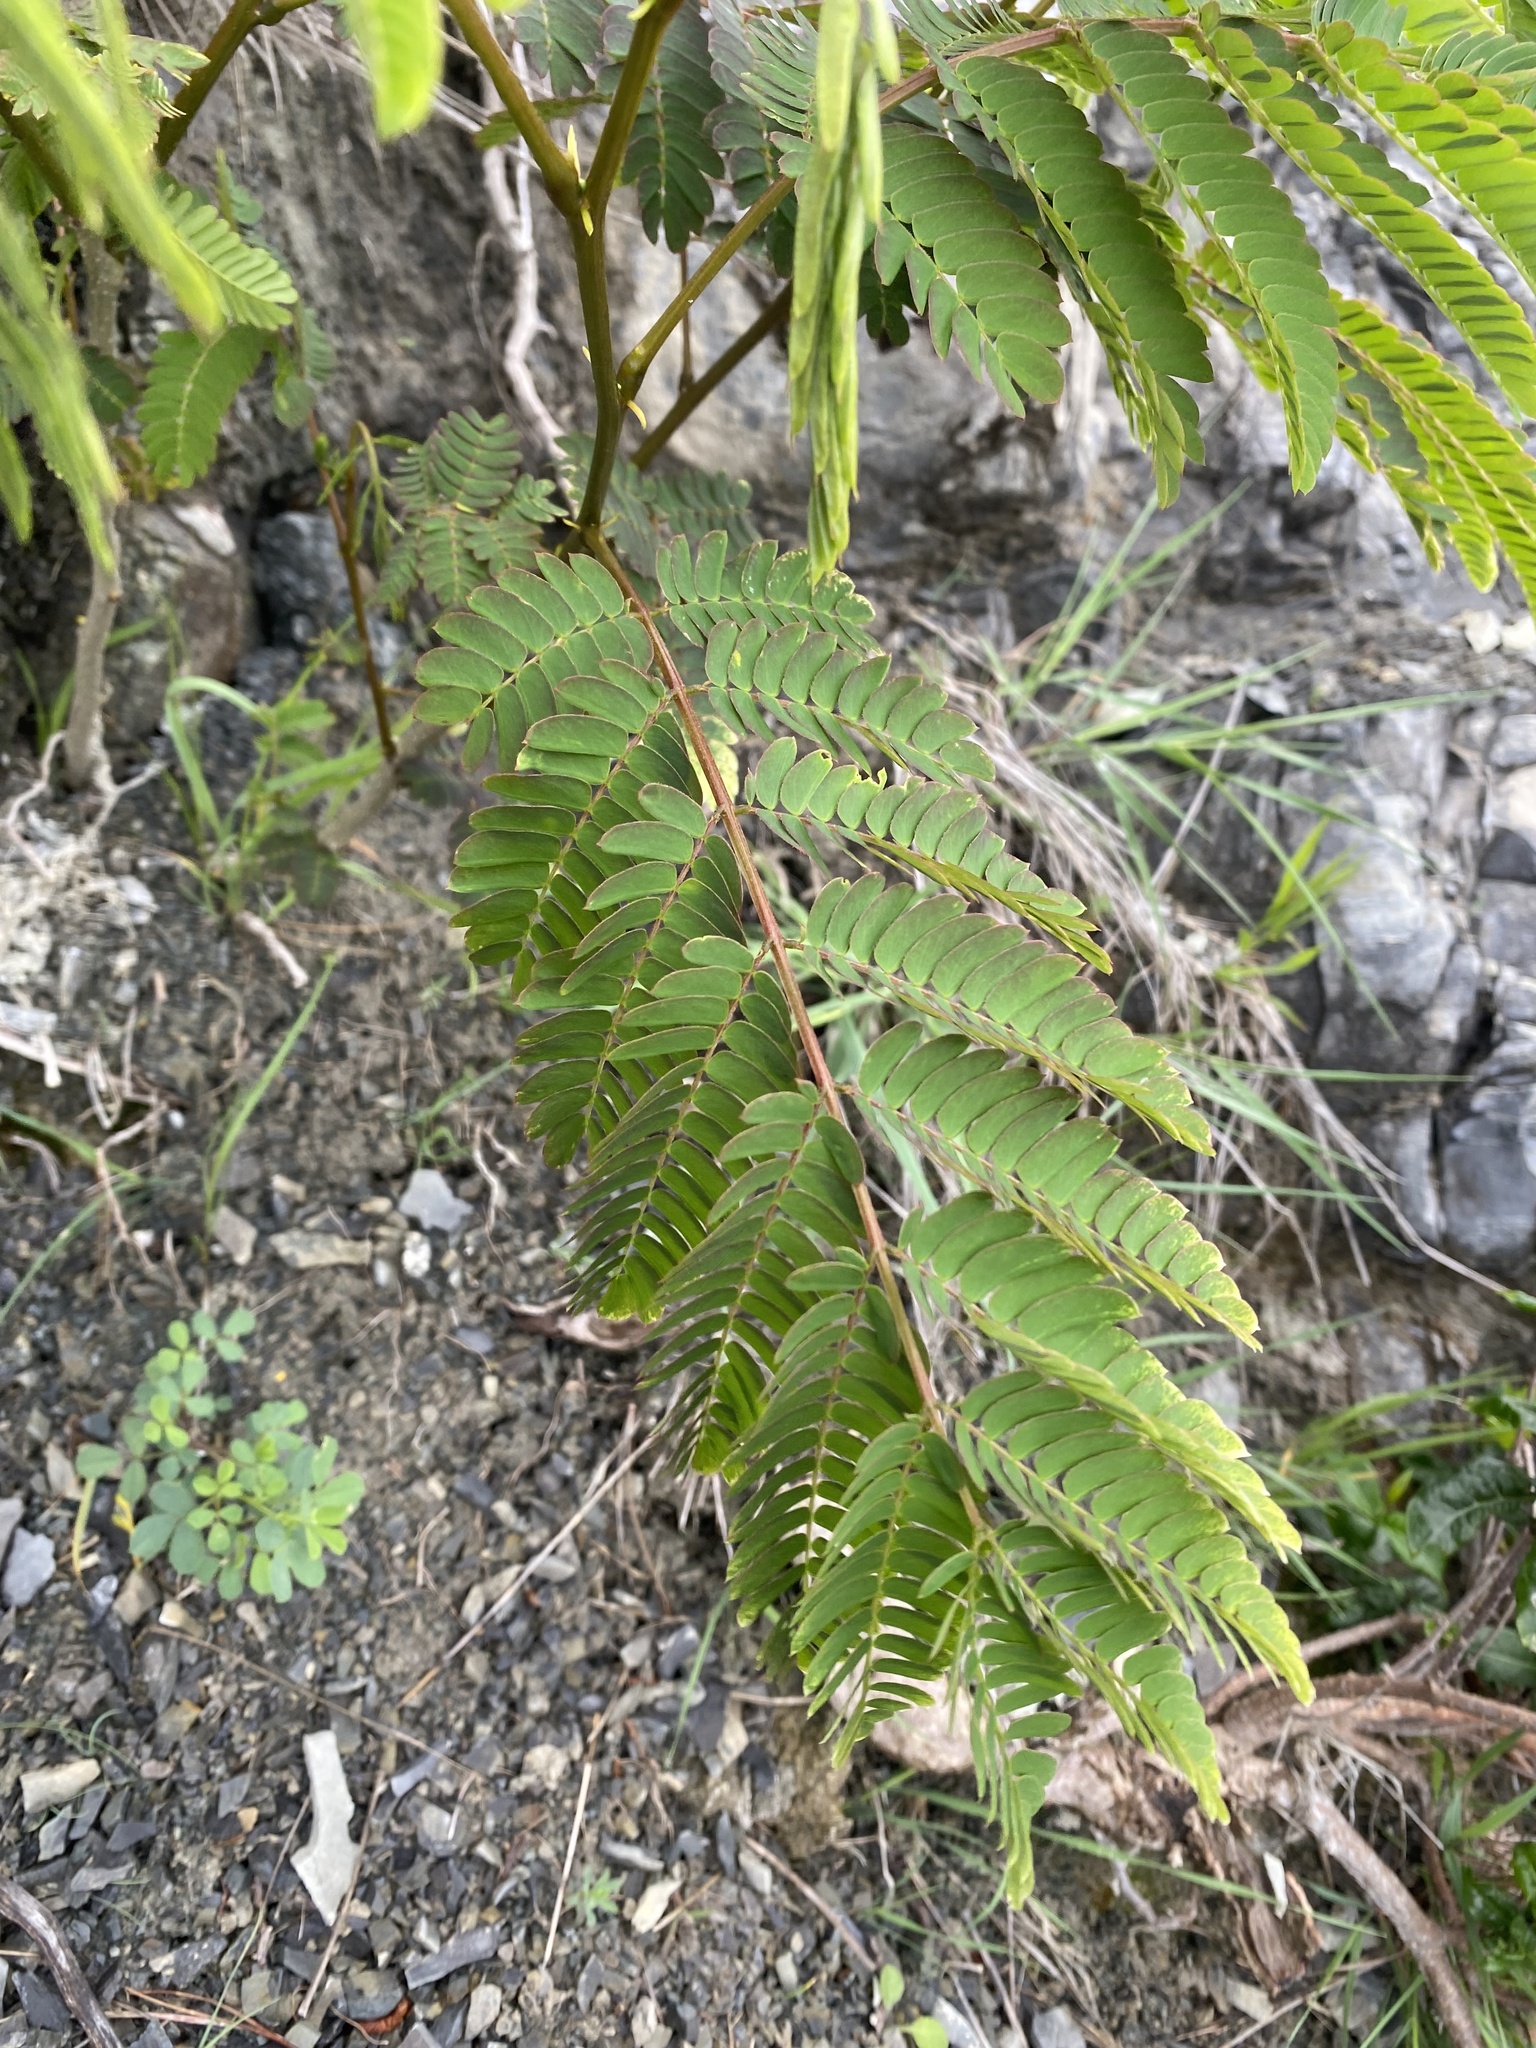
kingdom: Plantae
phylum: Tracheophyta
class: Magnoliopsida
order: Fabales
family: Fabaceae
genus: Albizia
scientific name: Albizia julibrissin
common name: Silktree
